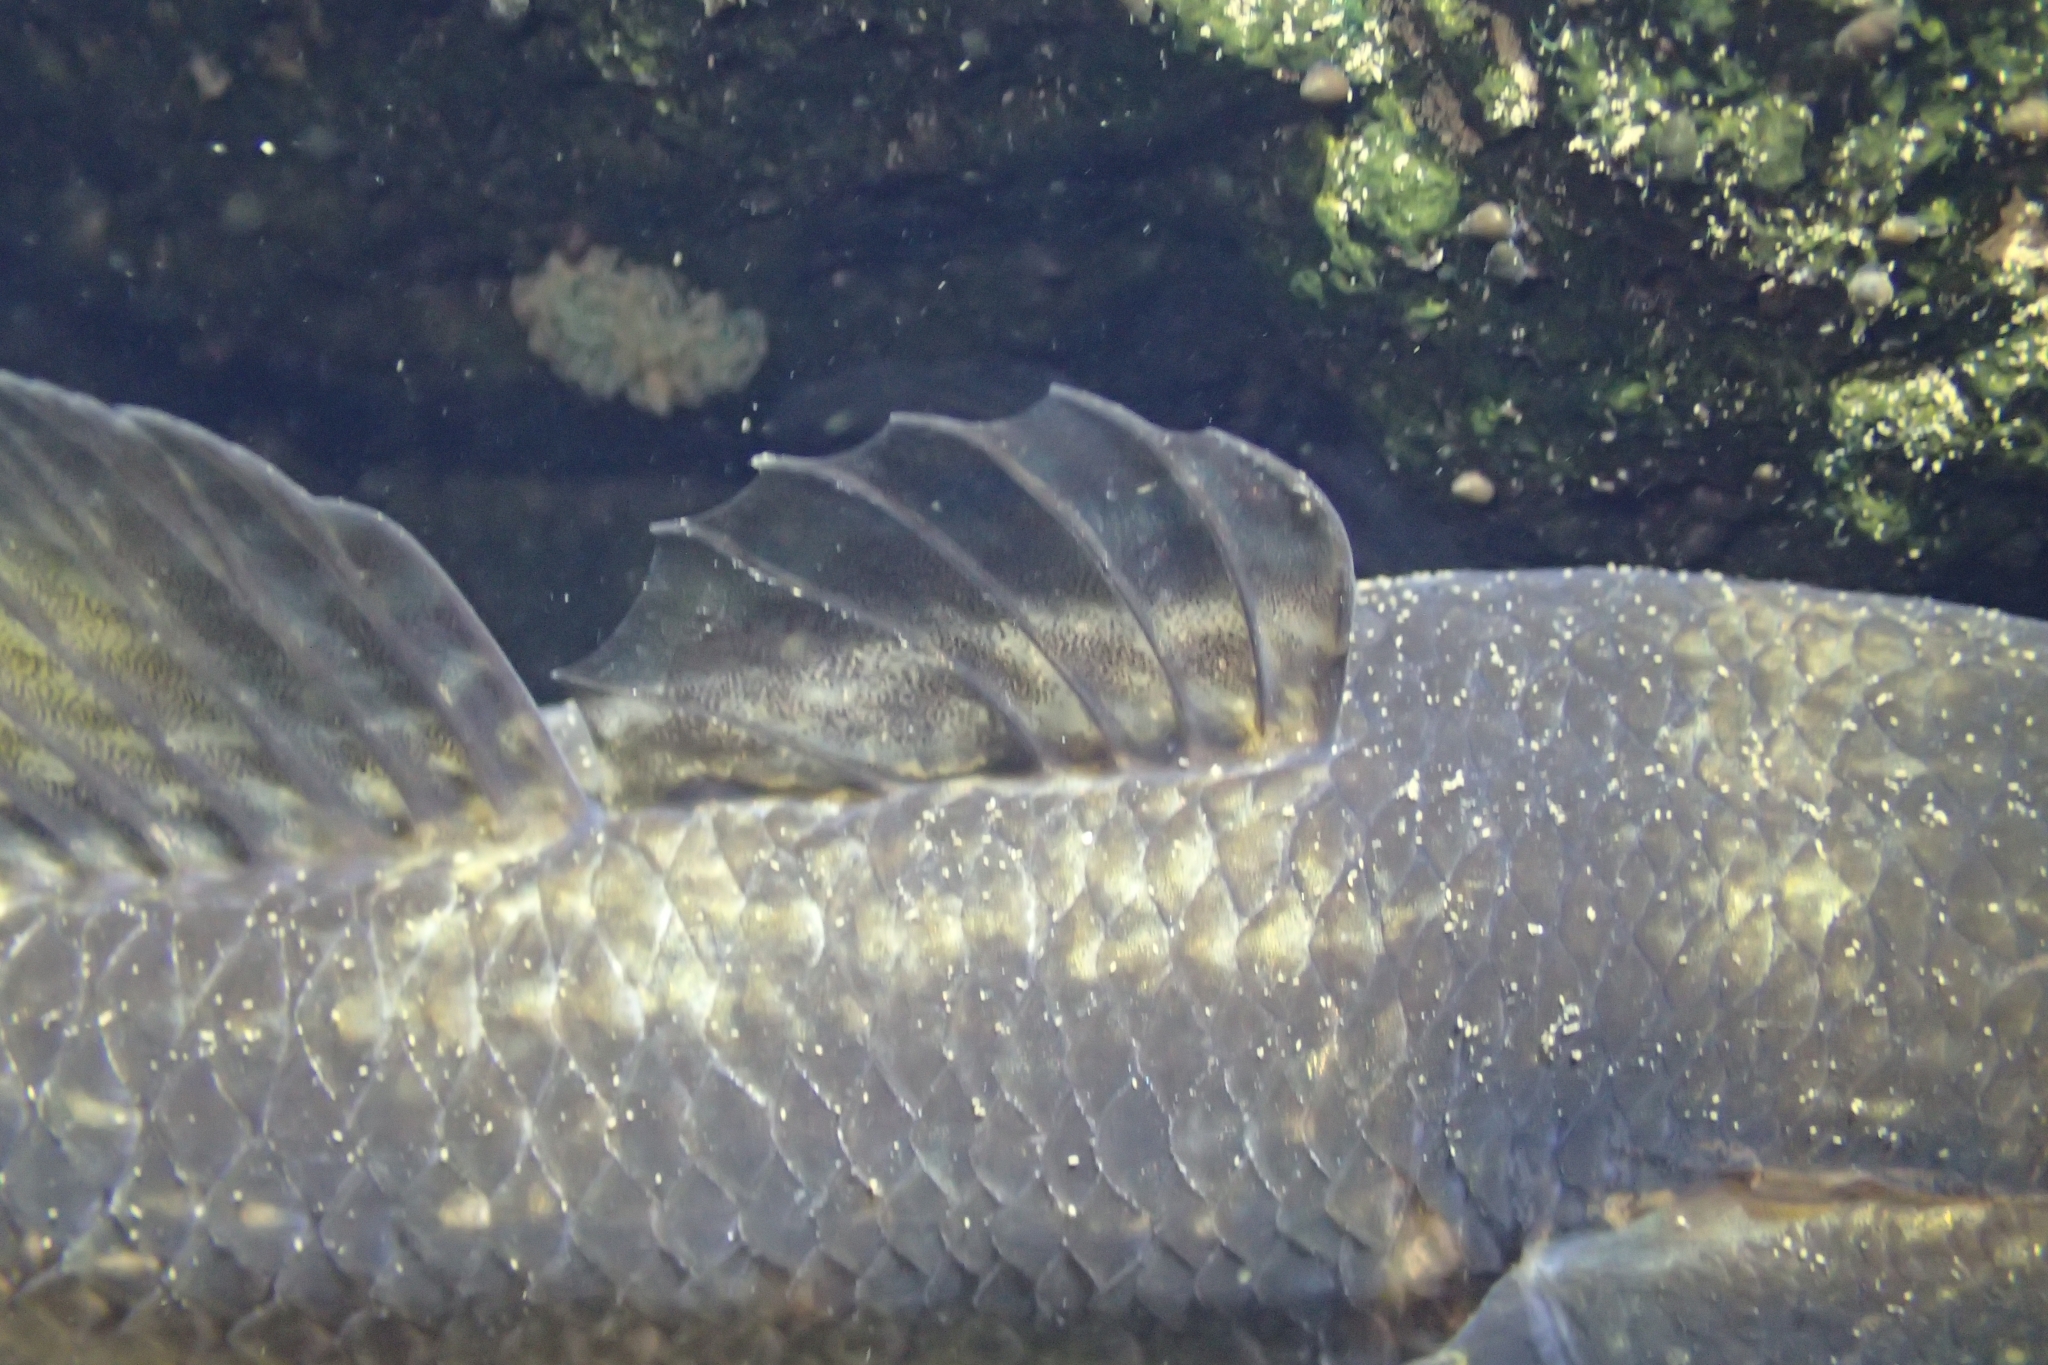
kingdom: Animalia
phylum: Chordata
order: Perciformes
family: Eleotridae
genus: Gobiomorphus
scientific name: Gobiomorphus gobioides
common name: Giant bully
